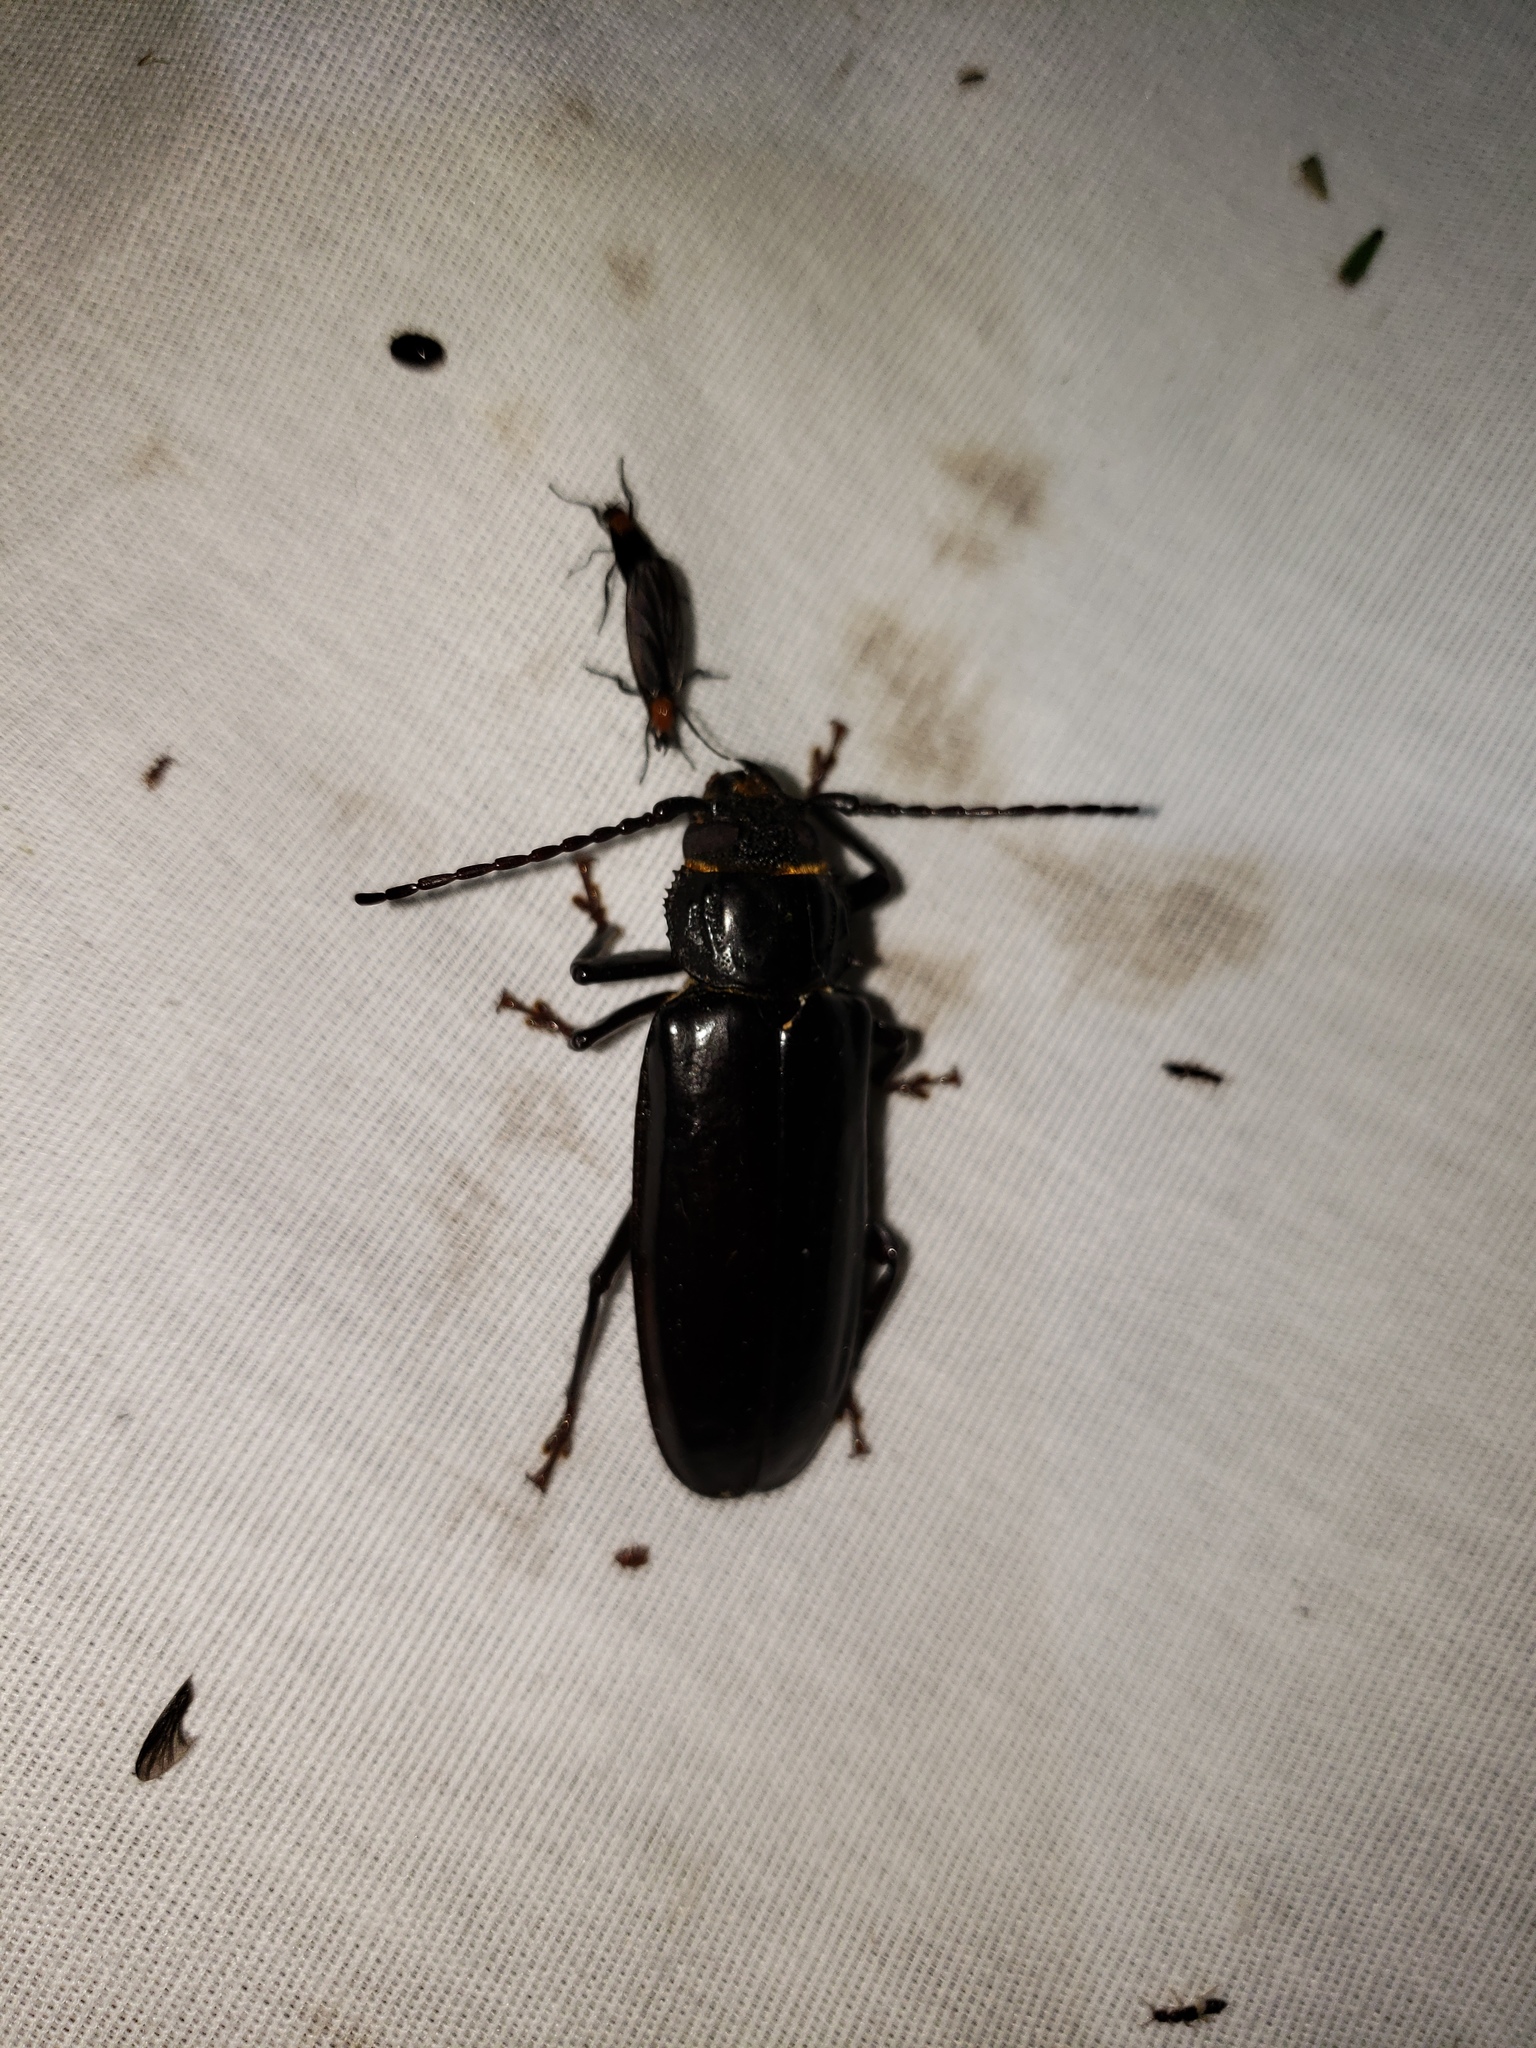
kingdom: Animalia
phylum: Arthropoda
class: Insecta
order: Coleoptera
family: Cerambycidae
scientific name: Cerambycidae
